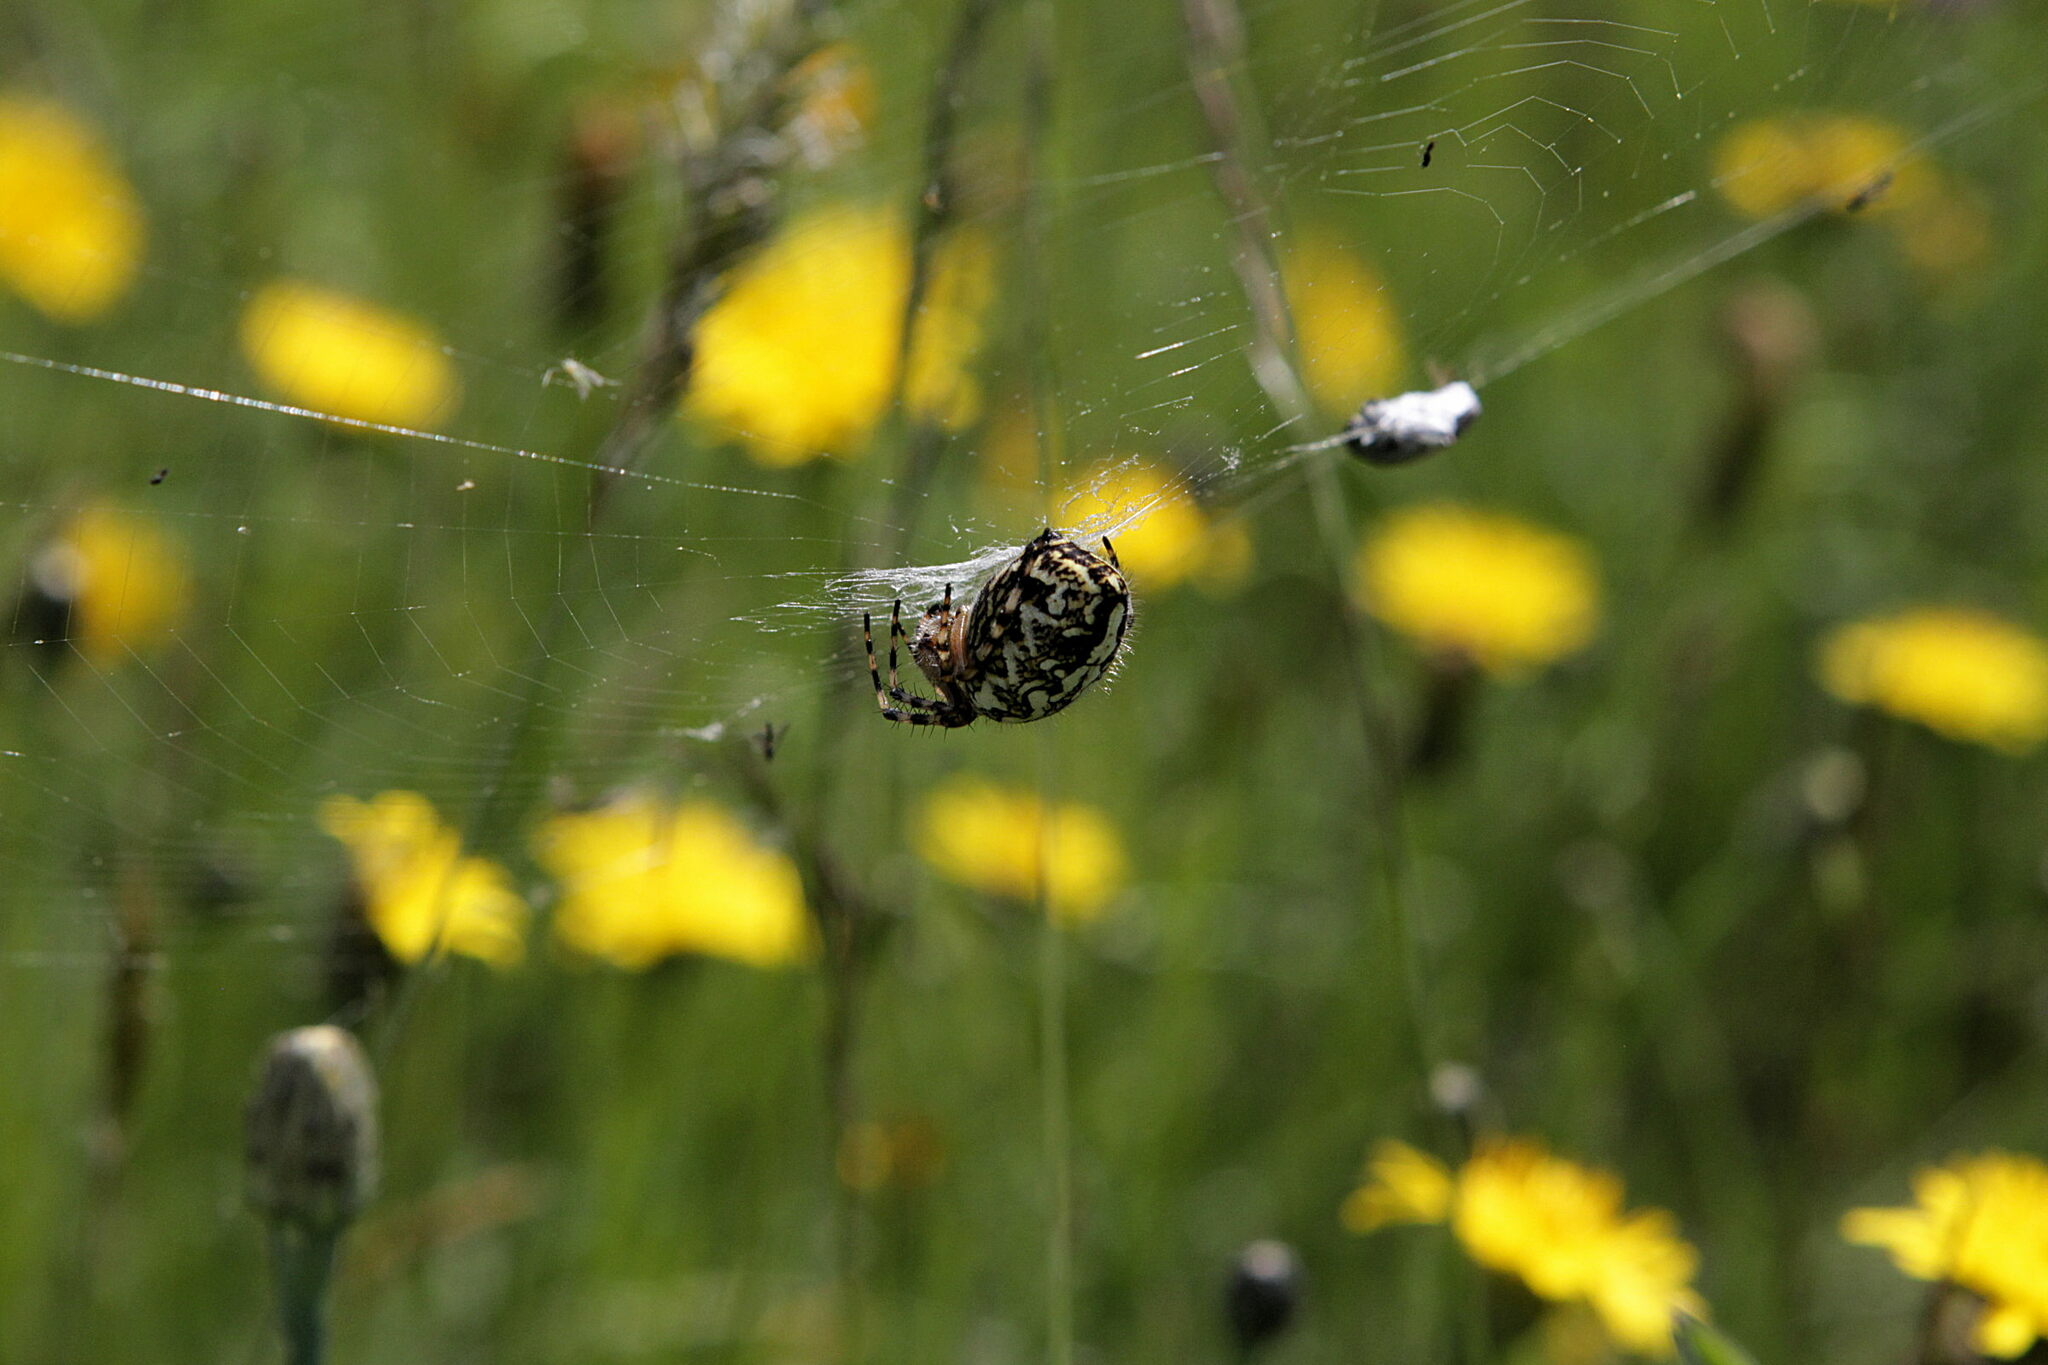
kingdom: Animalia
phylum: Arthropoda
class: Arachnida
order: Araneae
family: Araneidae
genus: Aculepeira
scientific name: Aculepeira ceropegia
